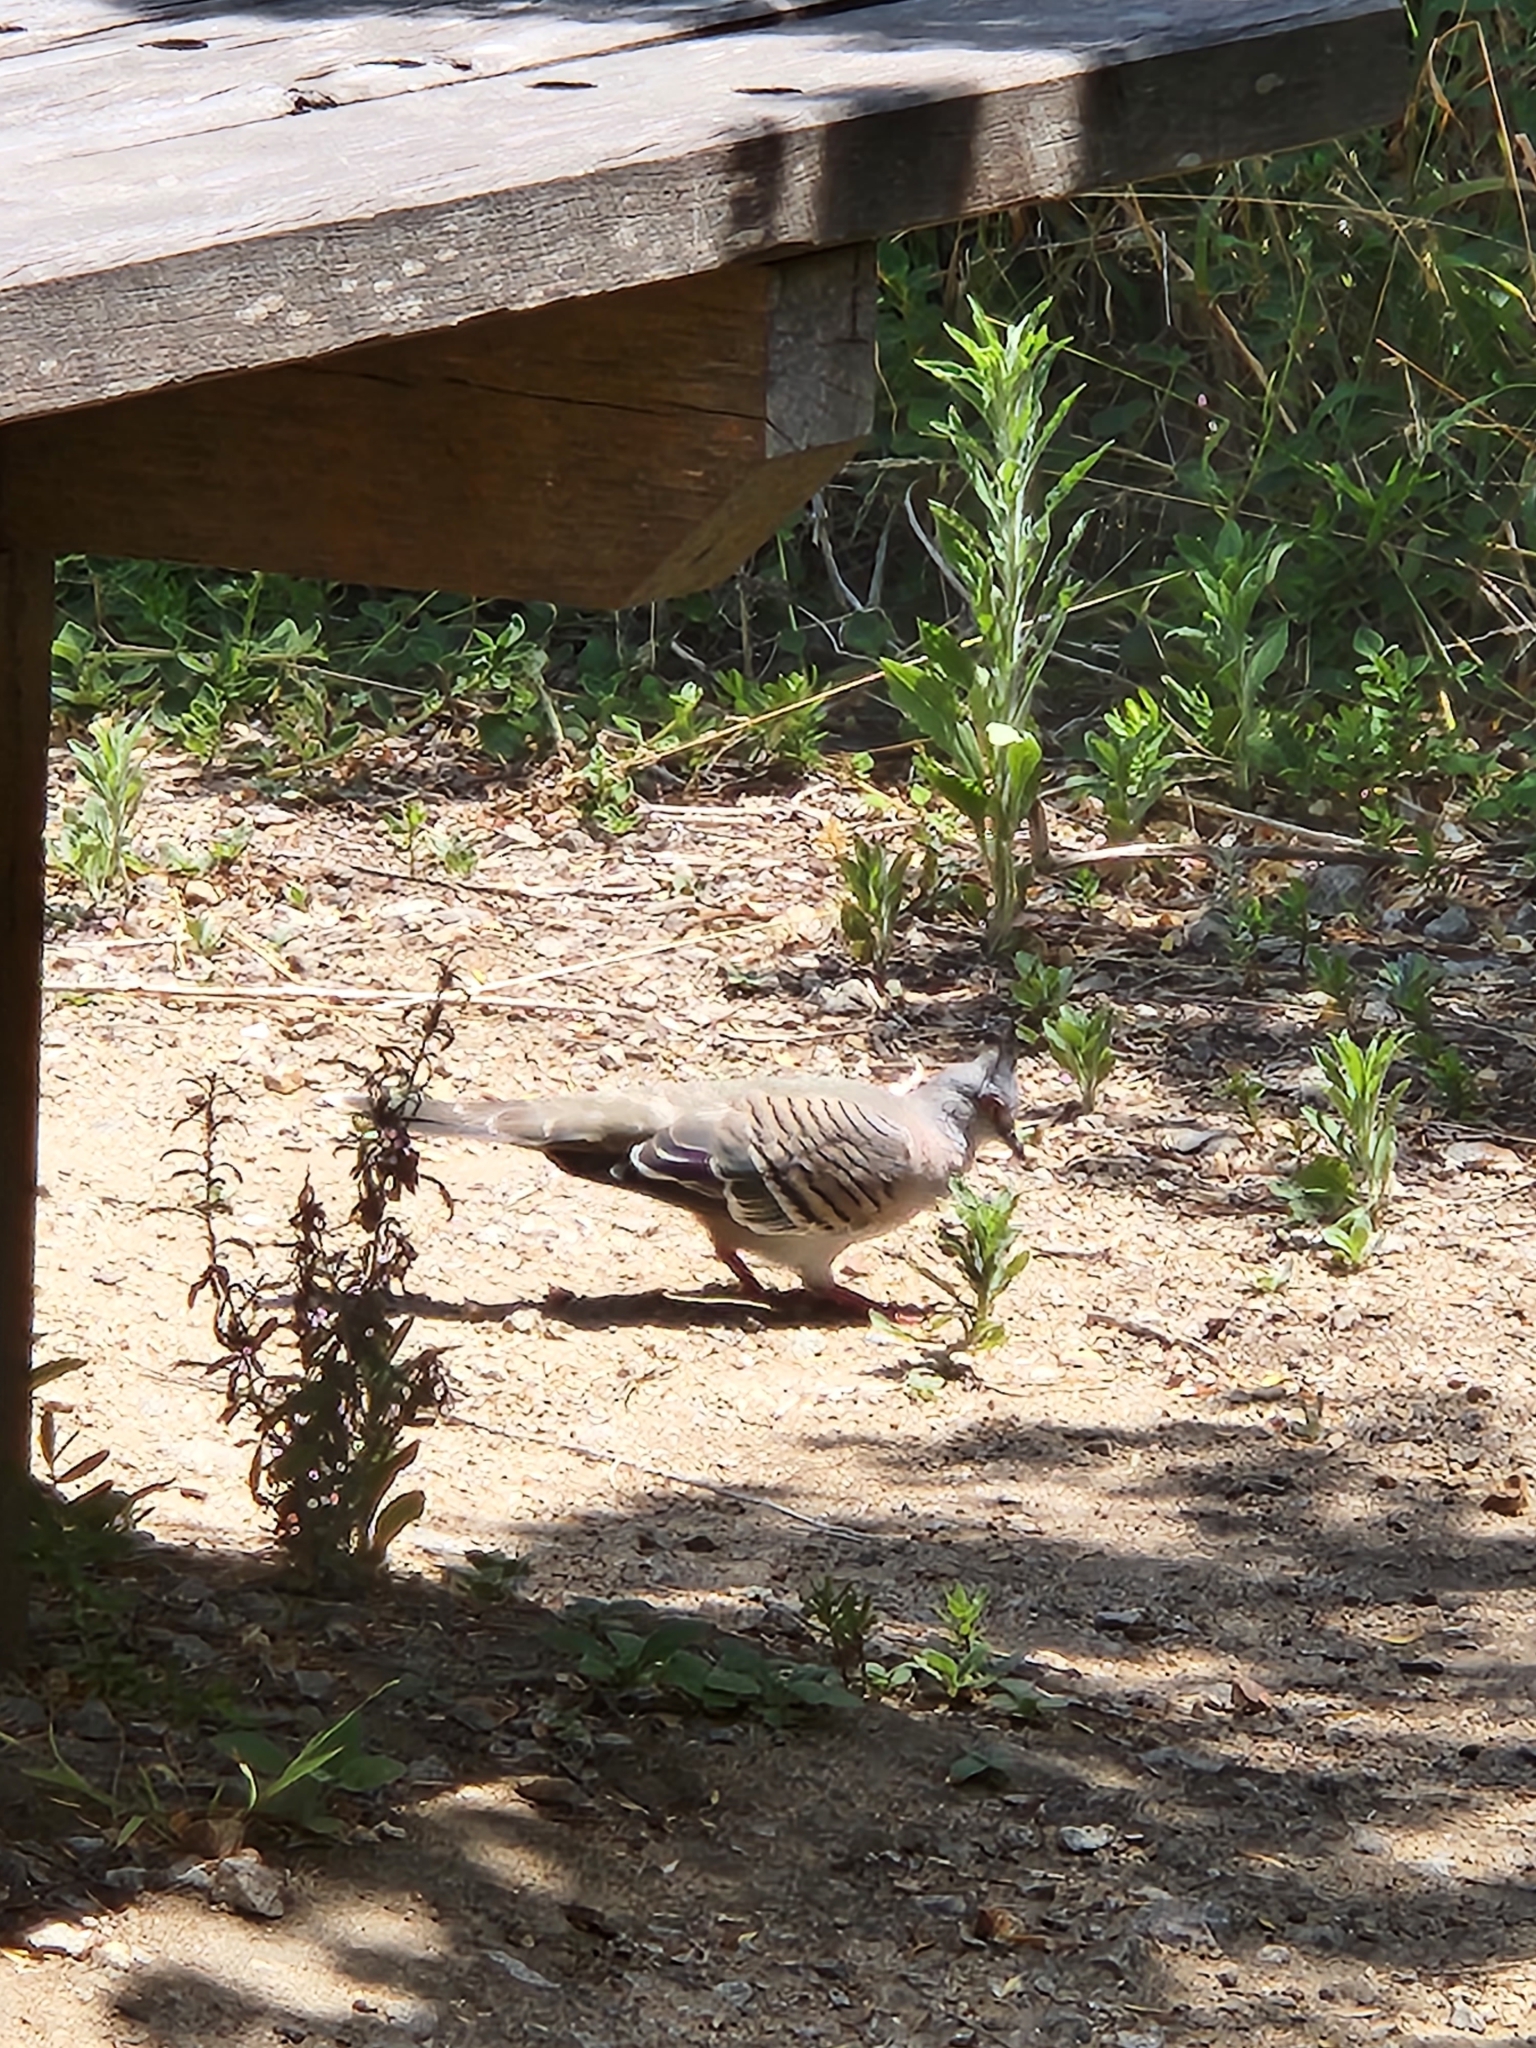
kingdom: Animalia
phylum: Chordata
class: Aves
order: Columbiformes
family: Columbidae
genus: Ocyphaps
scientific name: Ocyphaps lophotes
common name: Crested pigeon
